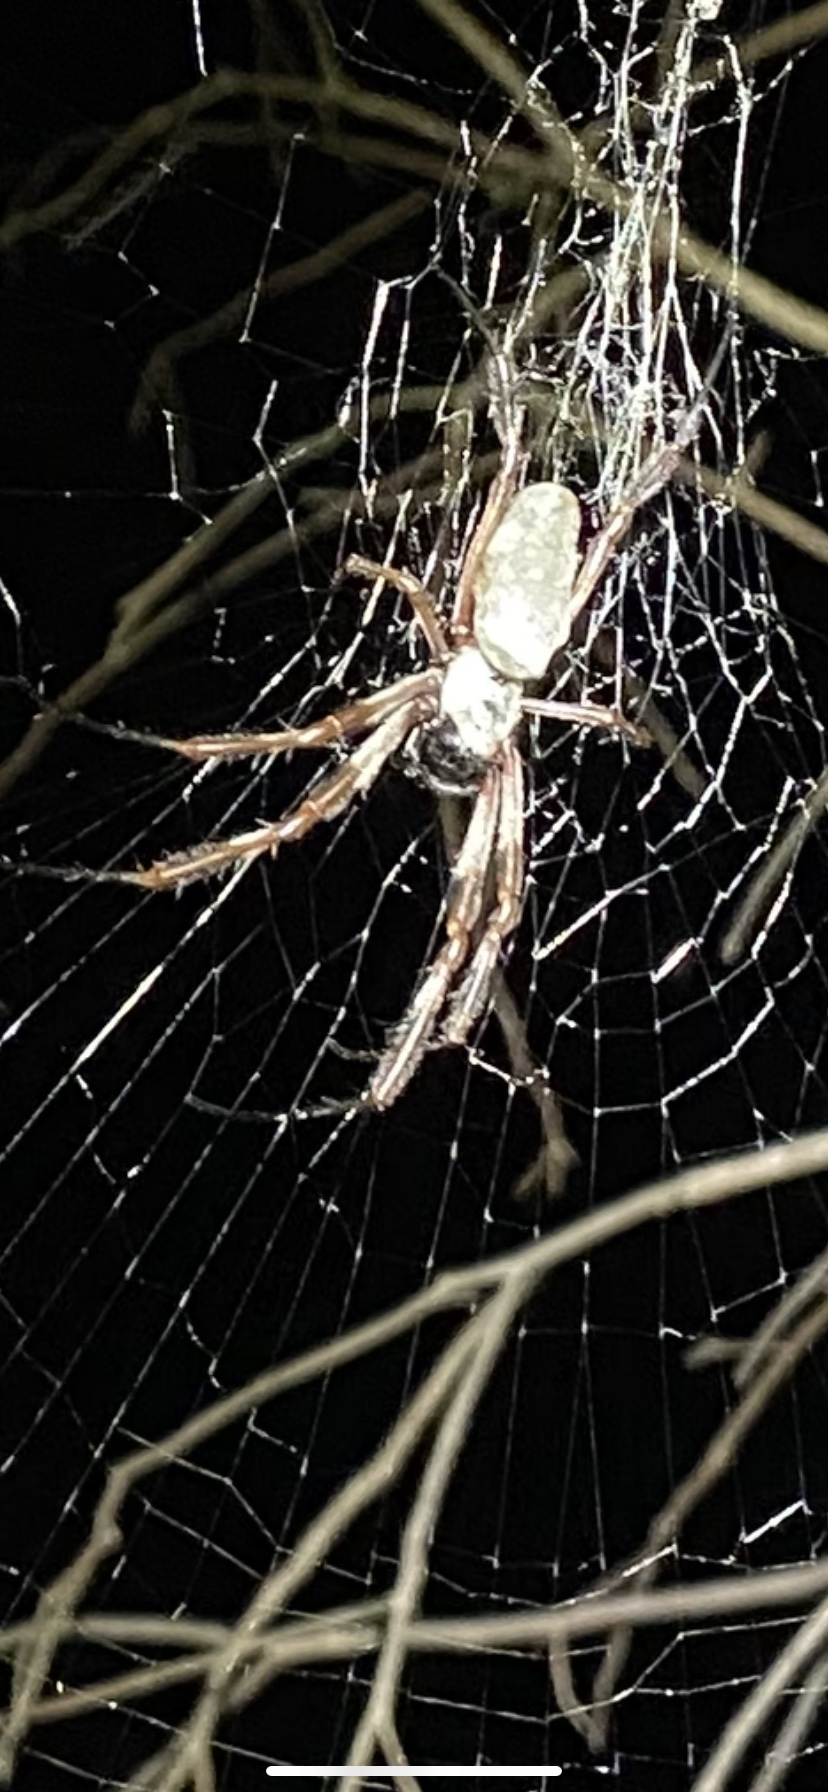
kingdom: Animalia
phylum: Arthropoda
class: Arachnida
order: Araneae
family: Araneidae
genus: Trichonephila
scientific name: Trichonephila edulis
